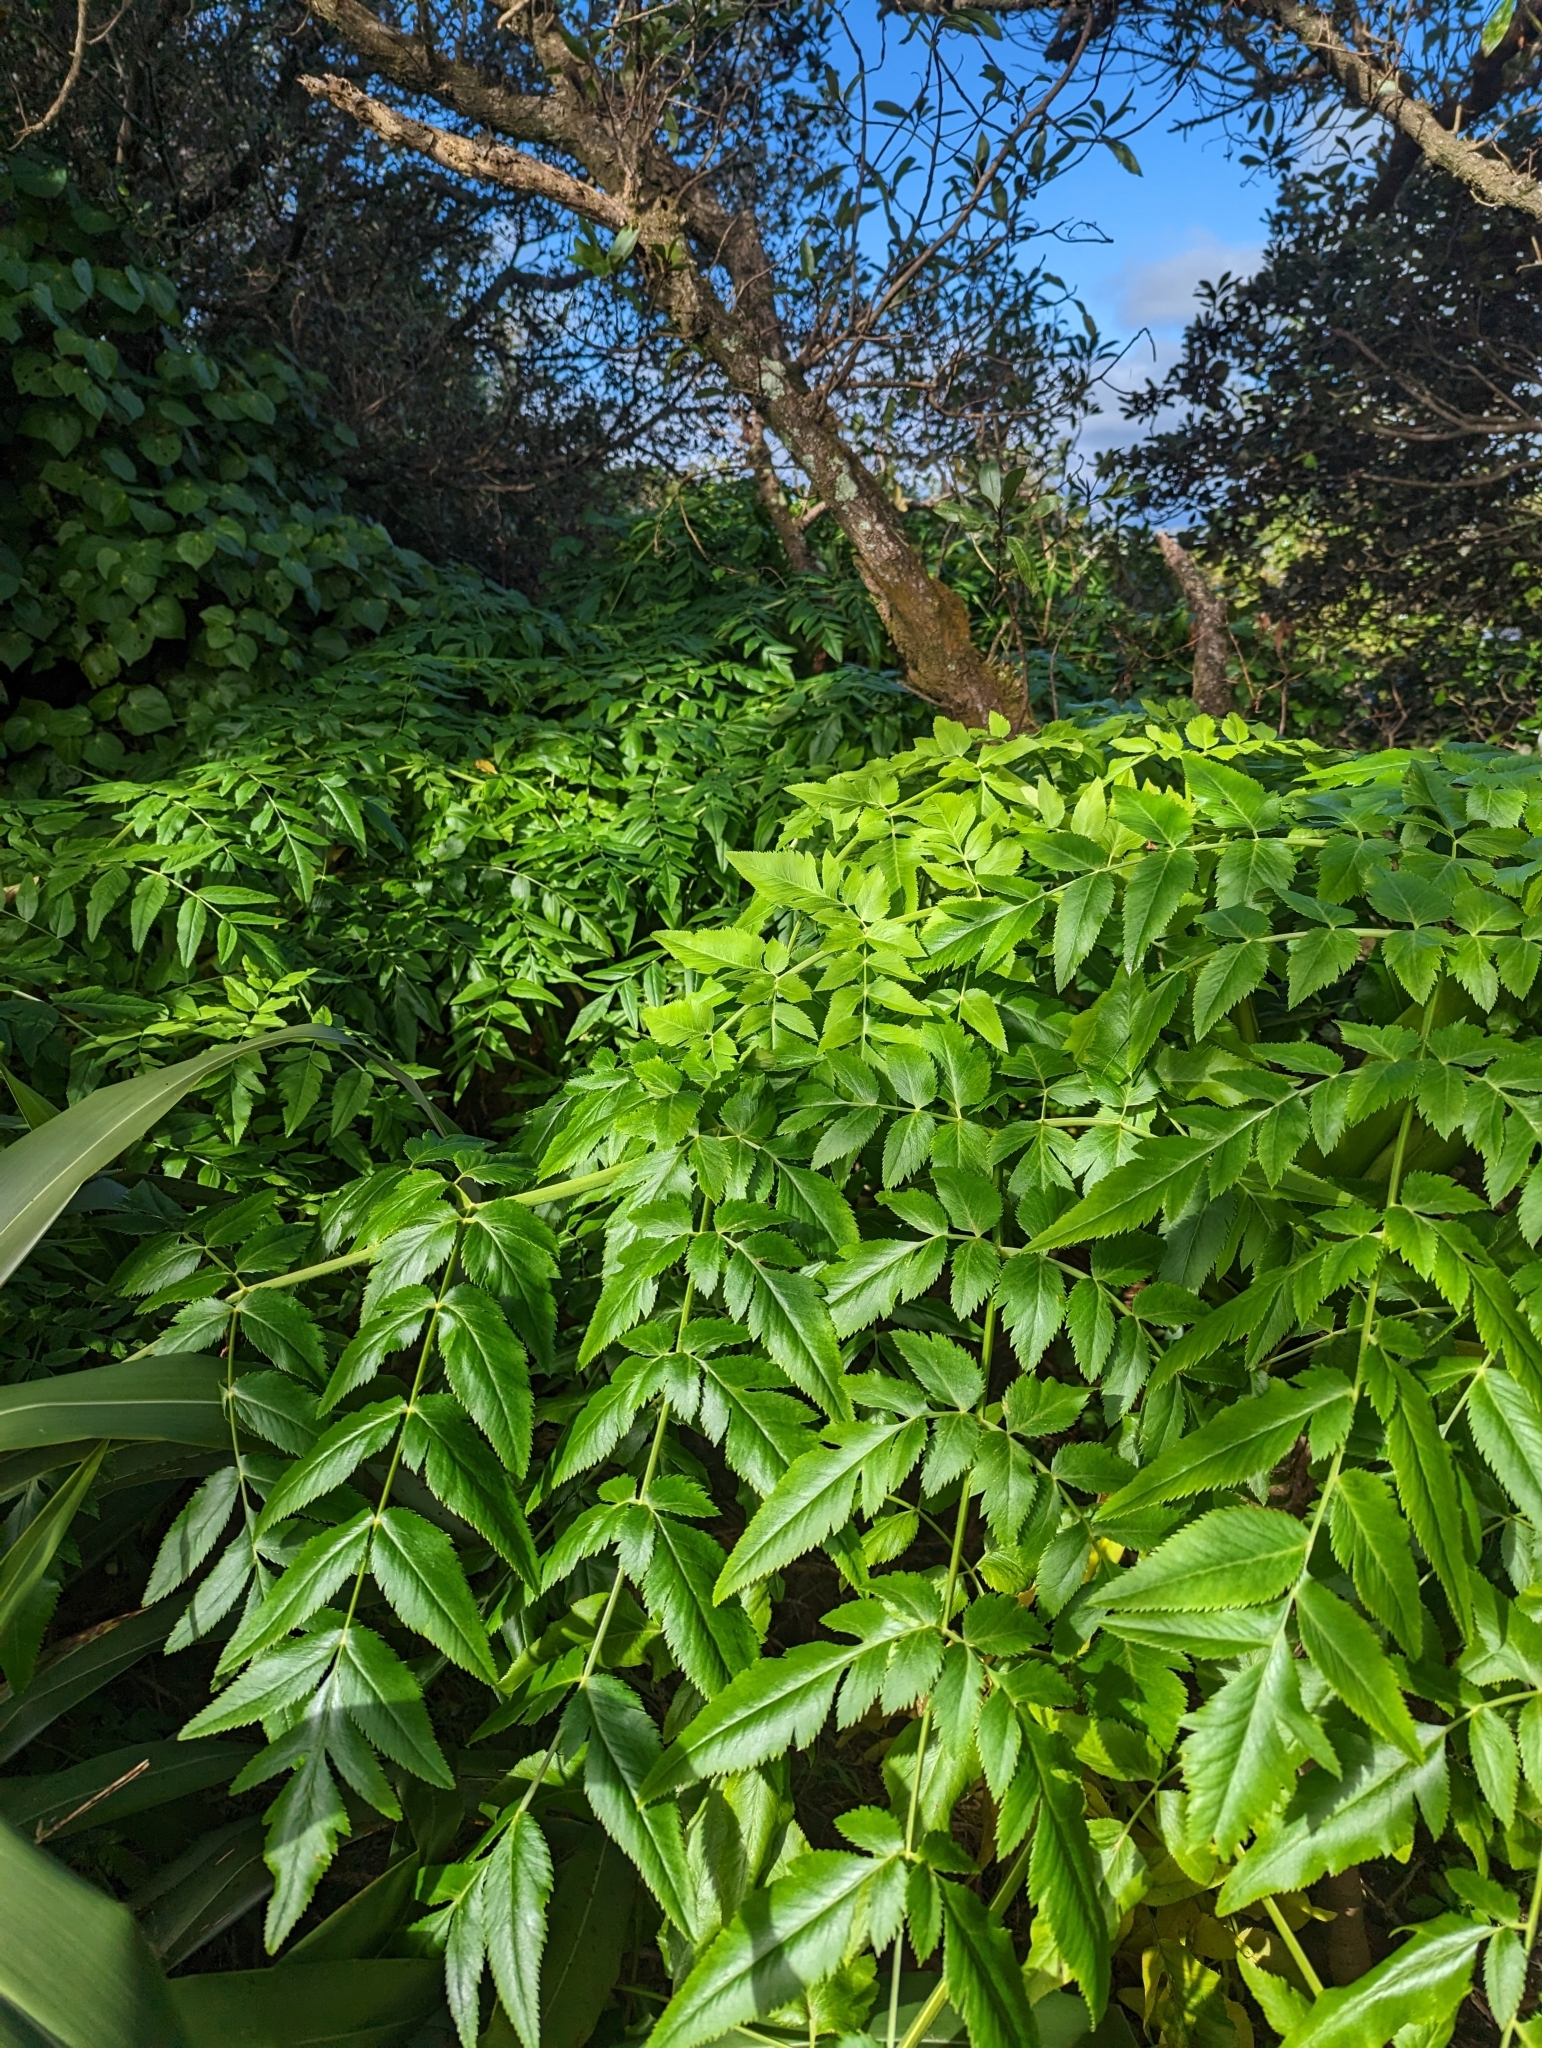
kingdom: Plantae
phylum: Tracheophyta
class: Magnoliopsida
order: Apiales
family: Apiaceae
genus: Daucus
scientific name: Daucus decipiens
